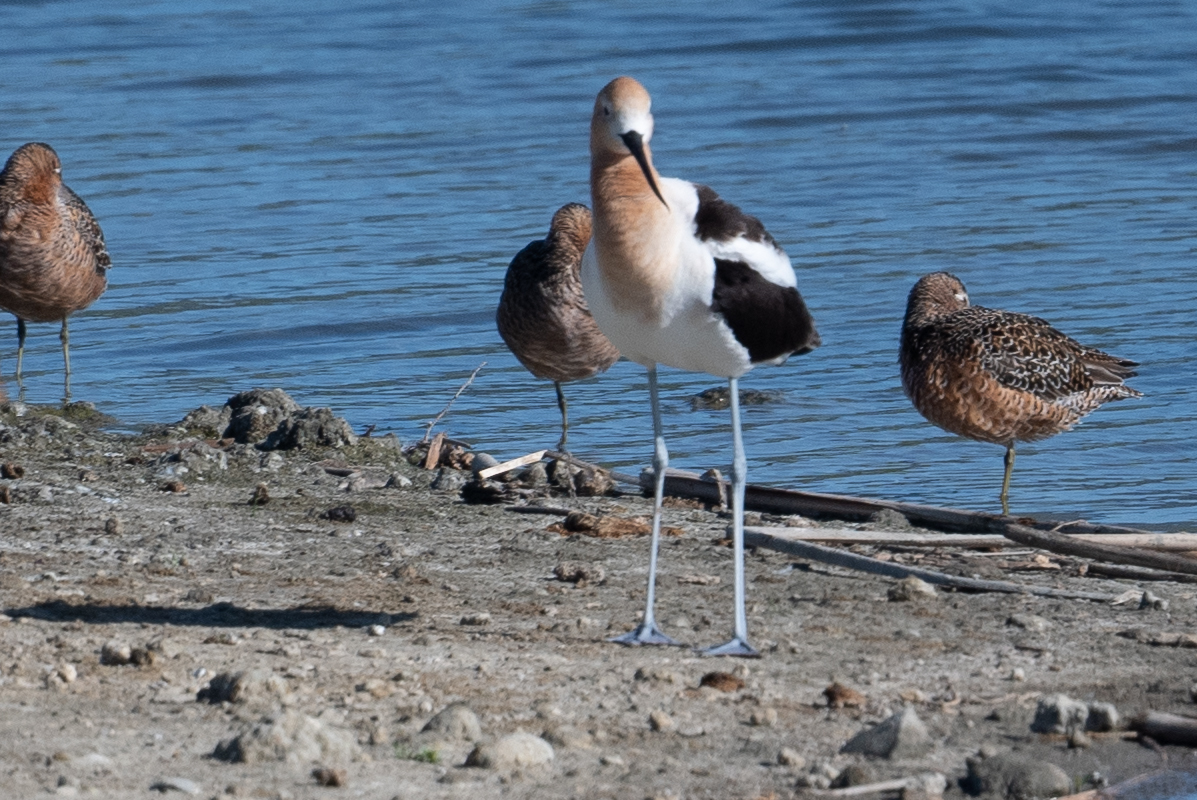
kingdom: Animalia
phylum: Chordata
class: Aves
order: Charadriiformes
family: Recurvirostridae
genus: Recurvirostra
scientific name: Recurvirostra americana
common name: American avocet
